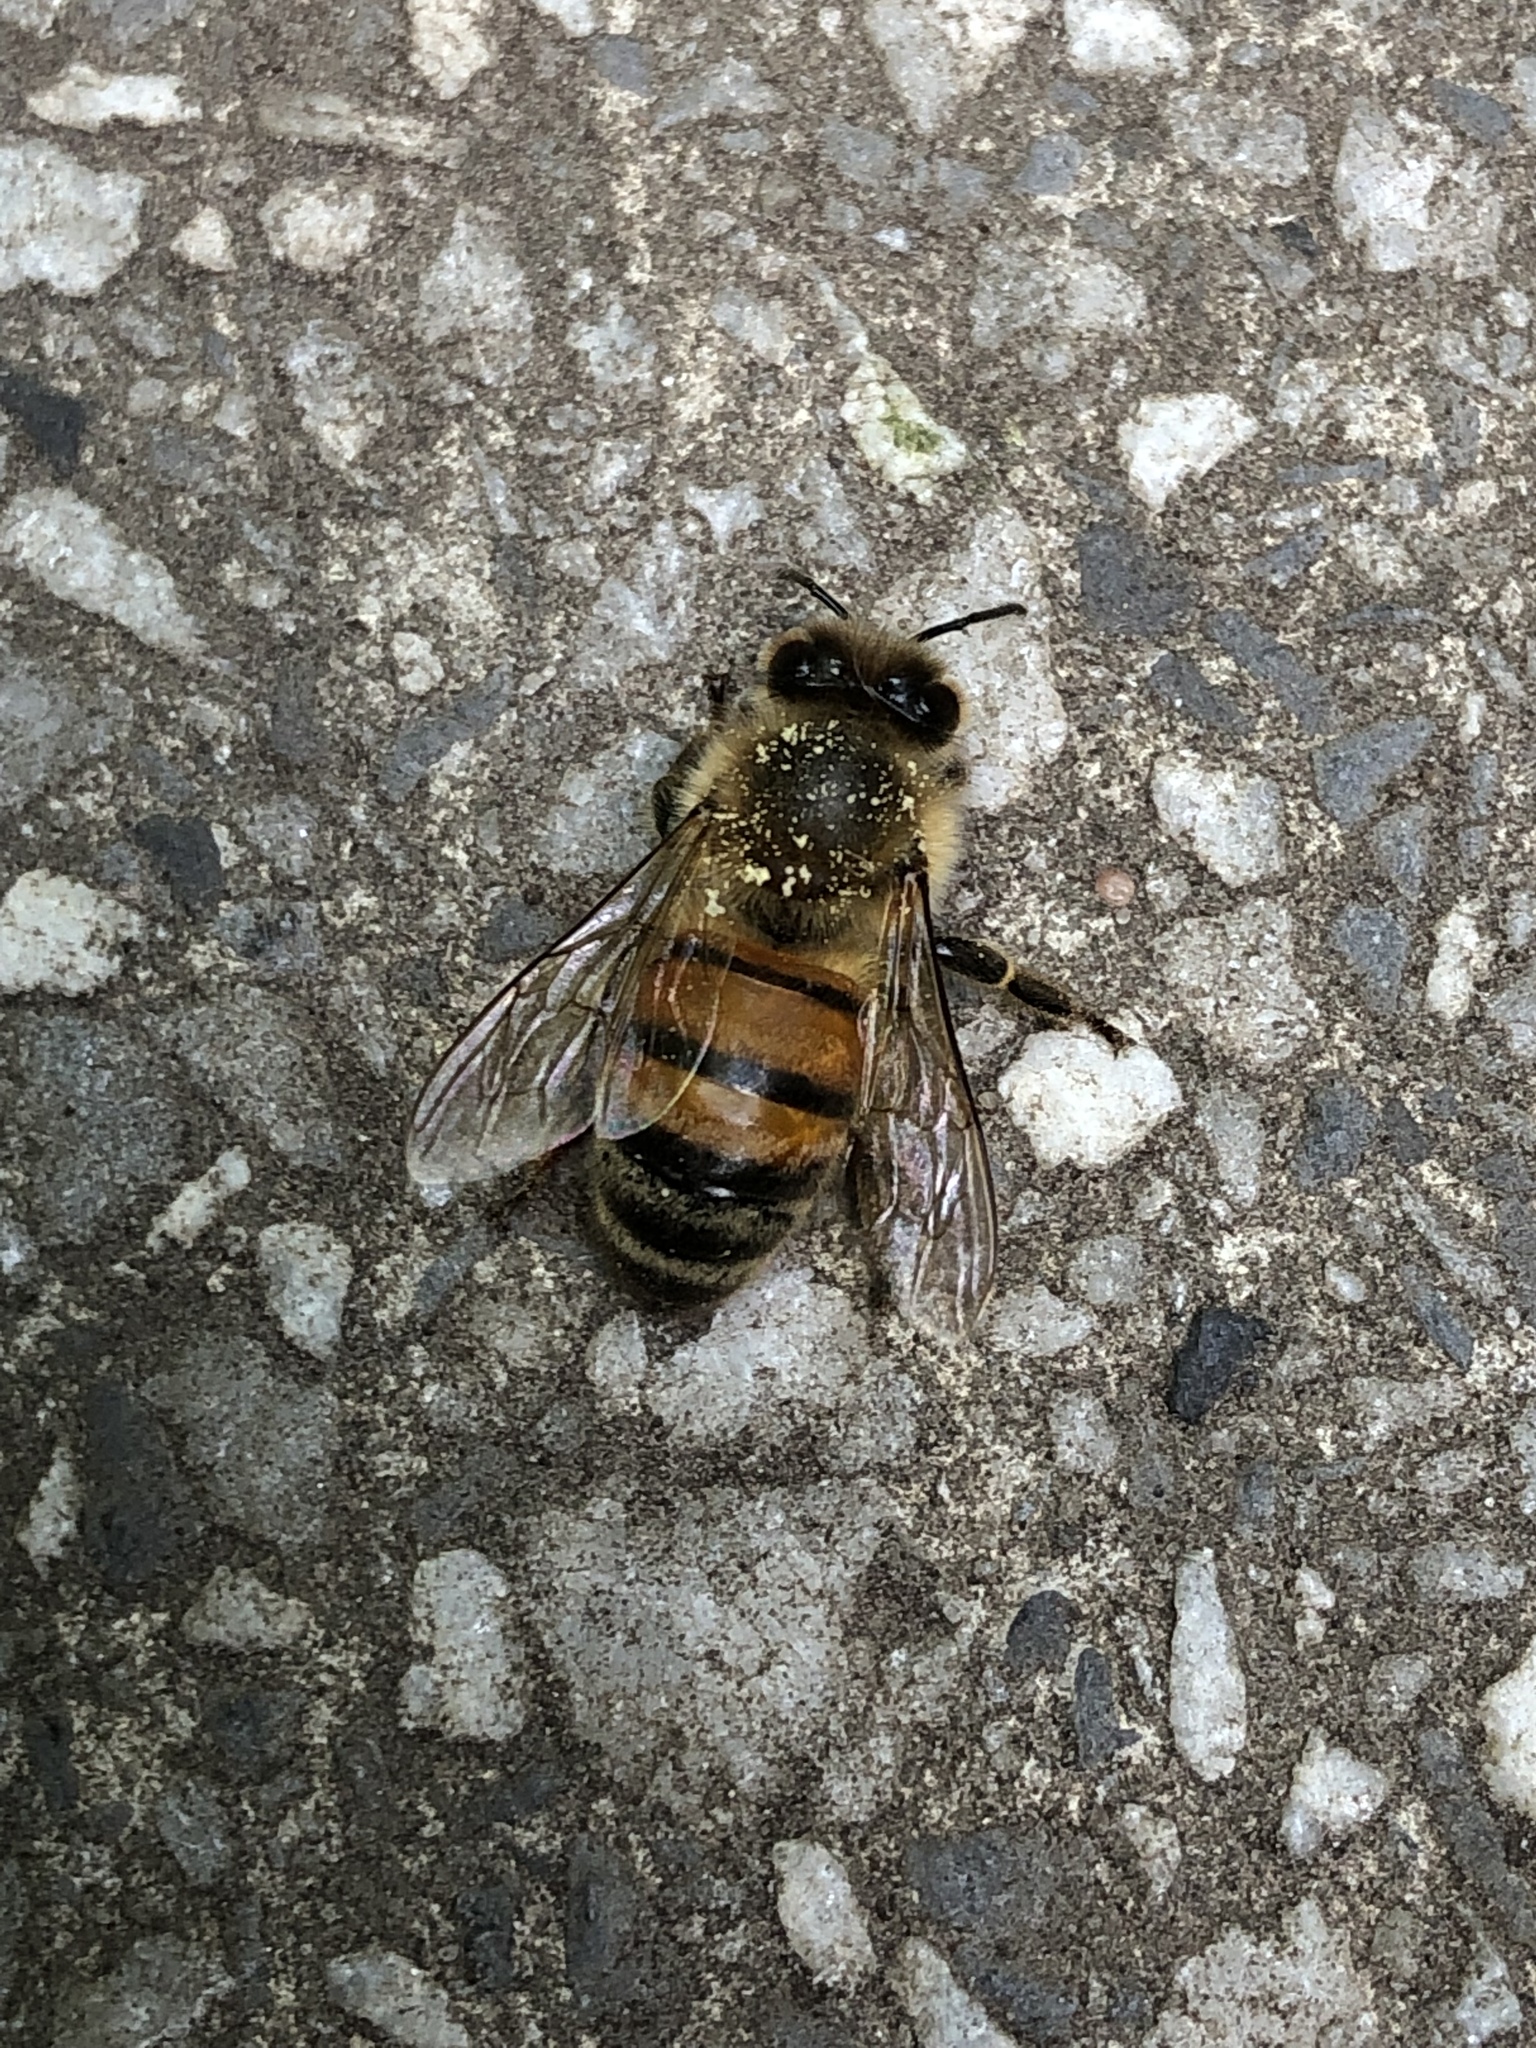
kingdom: Animalia
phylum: Arthropoda
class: Insecta
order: Hymenoptera
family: Apidae
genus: Apis
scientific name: Apis mellifera
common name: Honey bee
